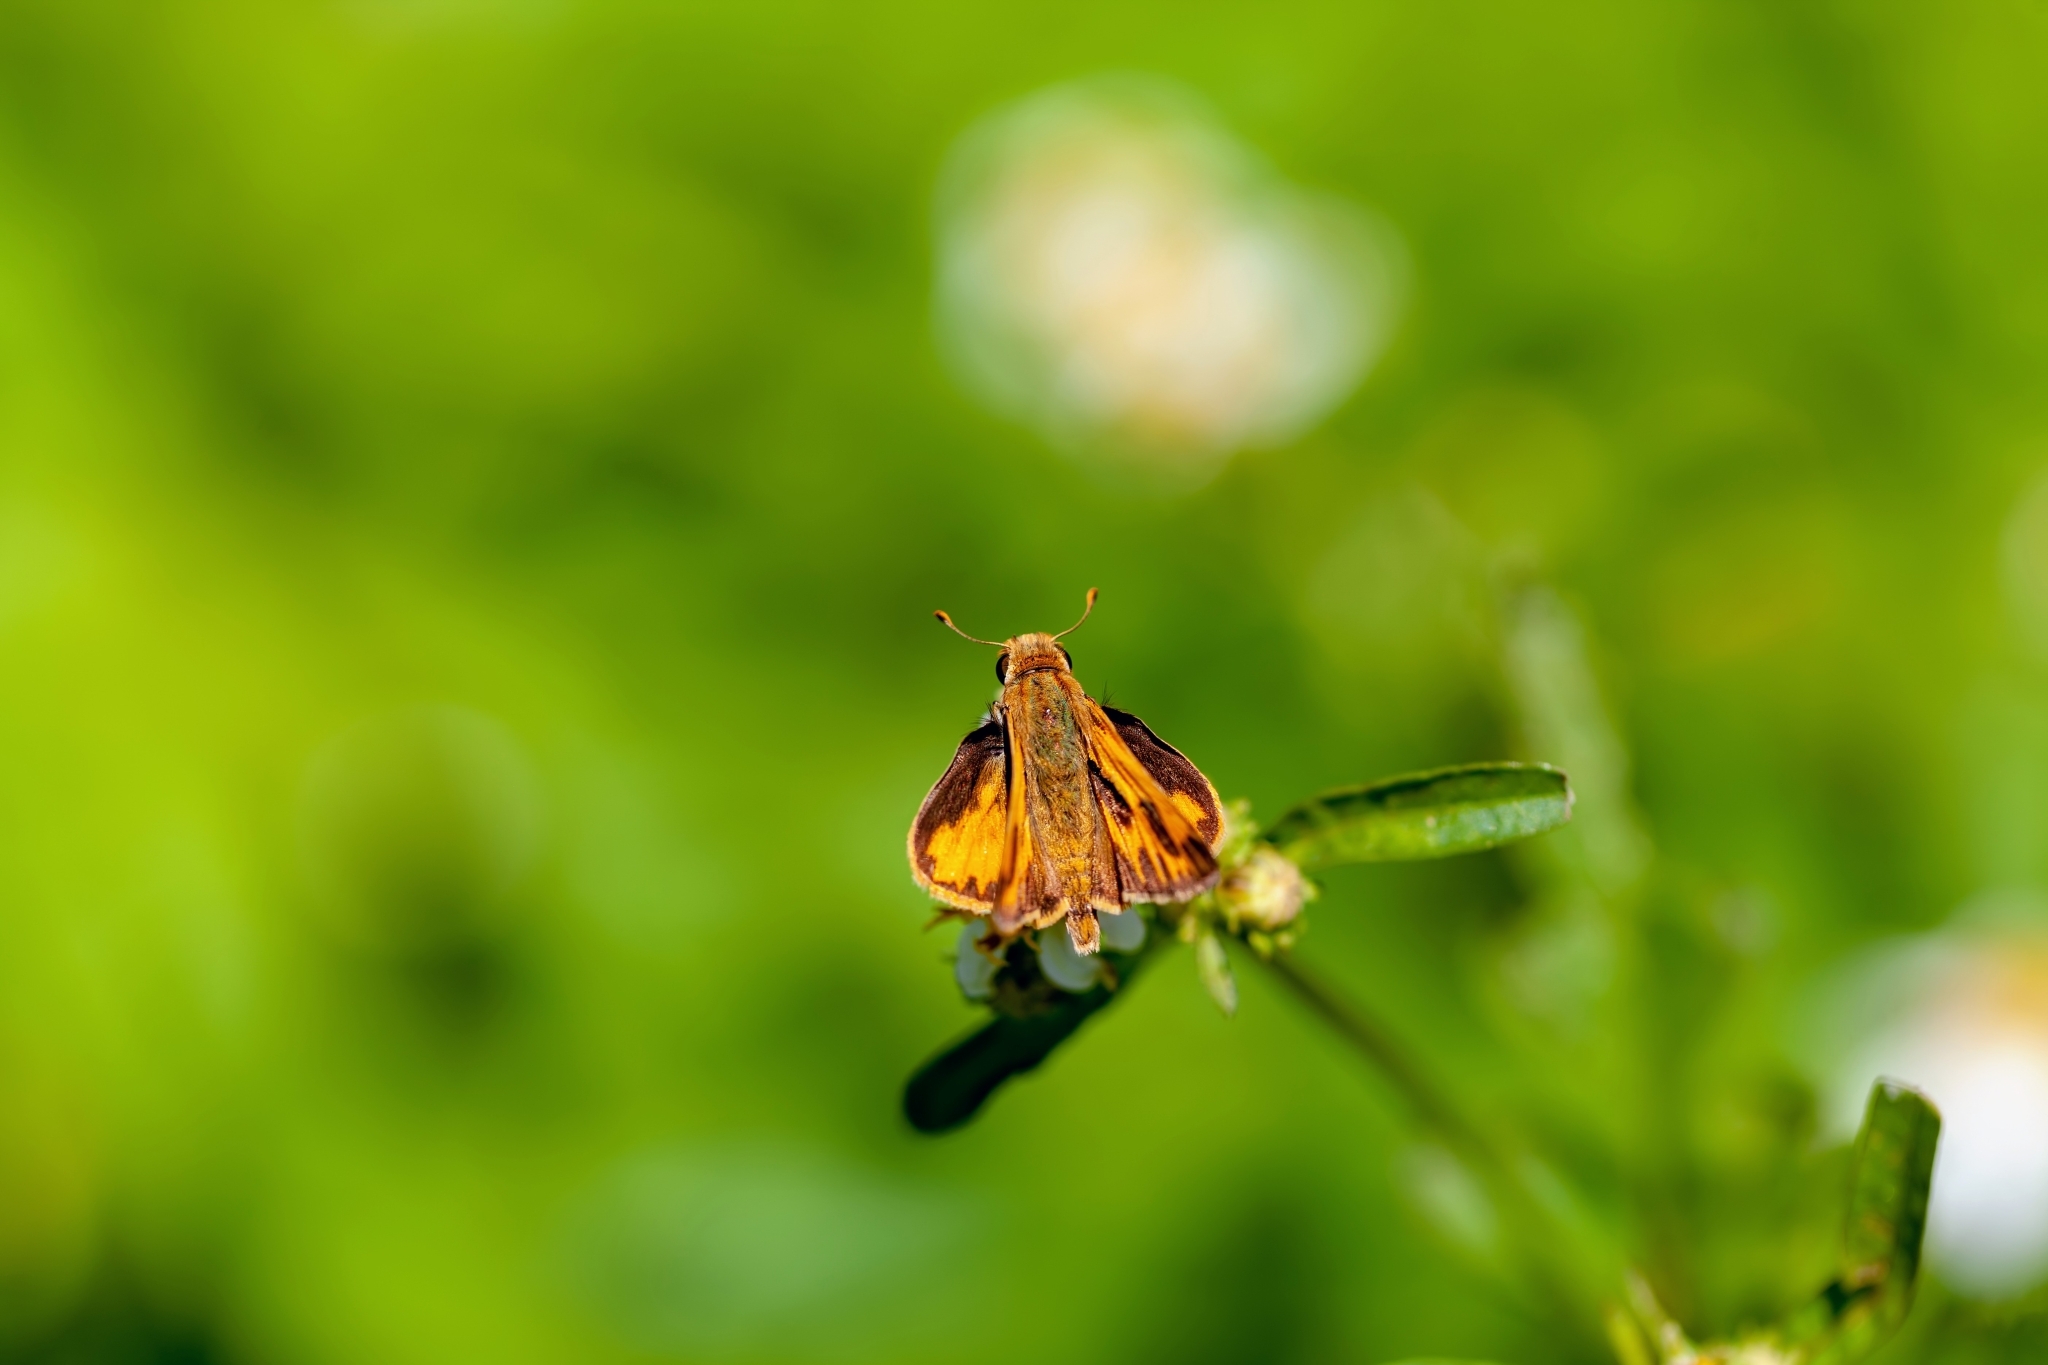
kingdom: Animalia
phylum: Arthropoda
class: Insecta
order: Lepidoptera
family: Hesperiidae
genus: Hylephila
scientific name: Hylephila phyleus
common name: Fiery skipper
